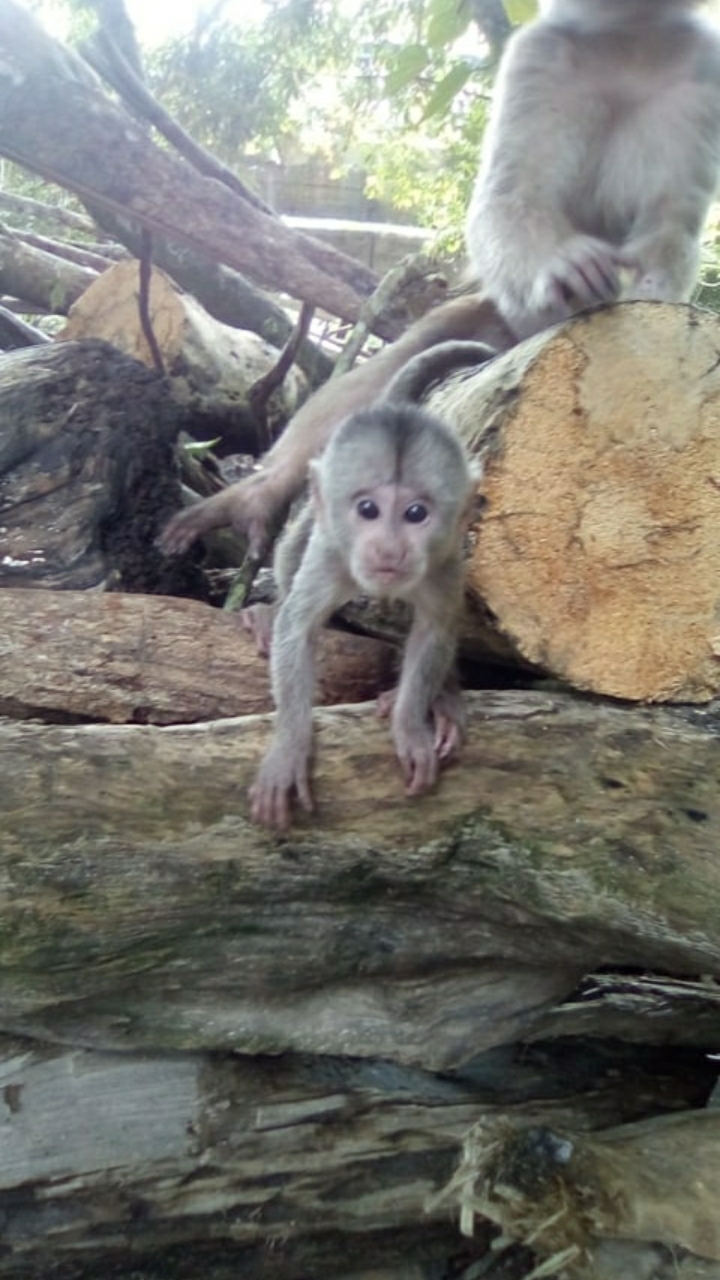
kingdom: Animalia
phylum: Chordata
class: Mammalia
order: Primates
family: Cebidae
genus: Cebus
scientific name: Cebus yuracus
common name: Peruvian white-fronted capuchin
